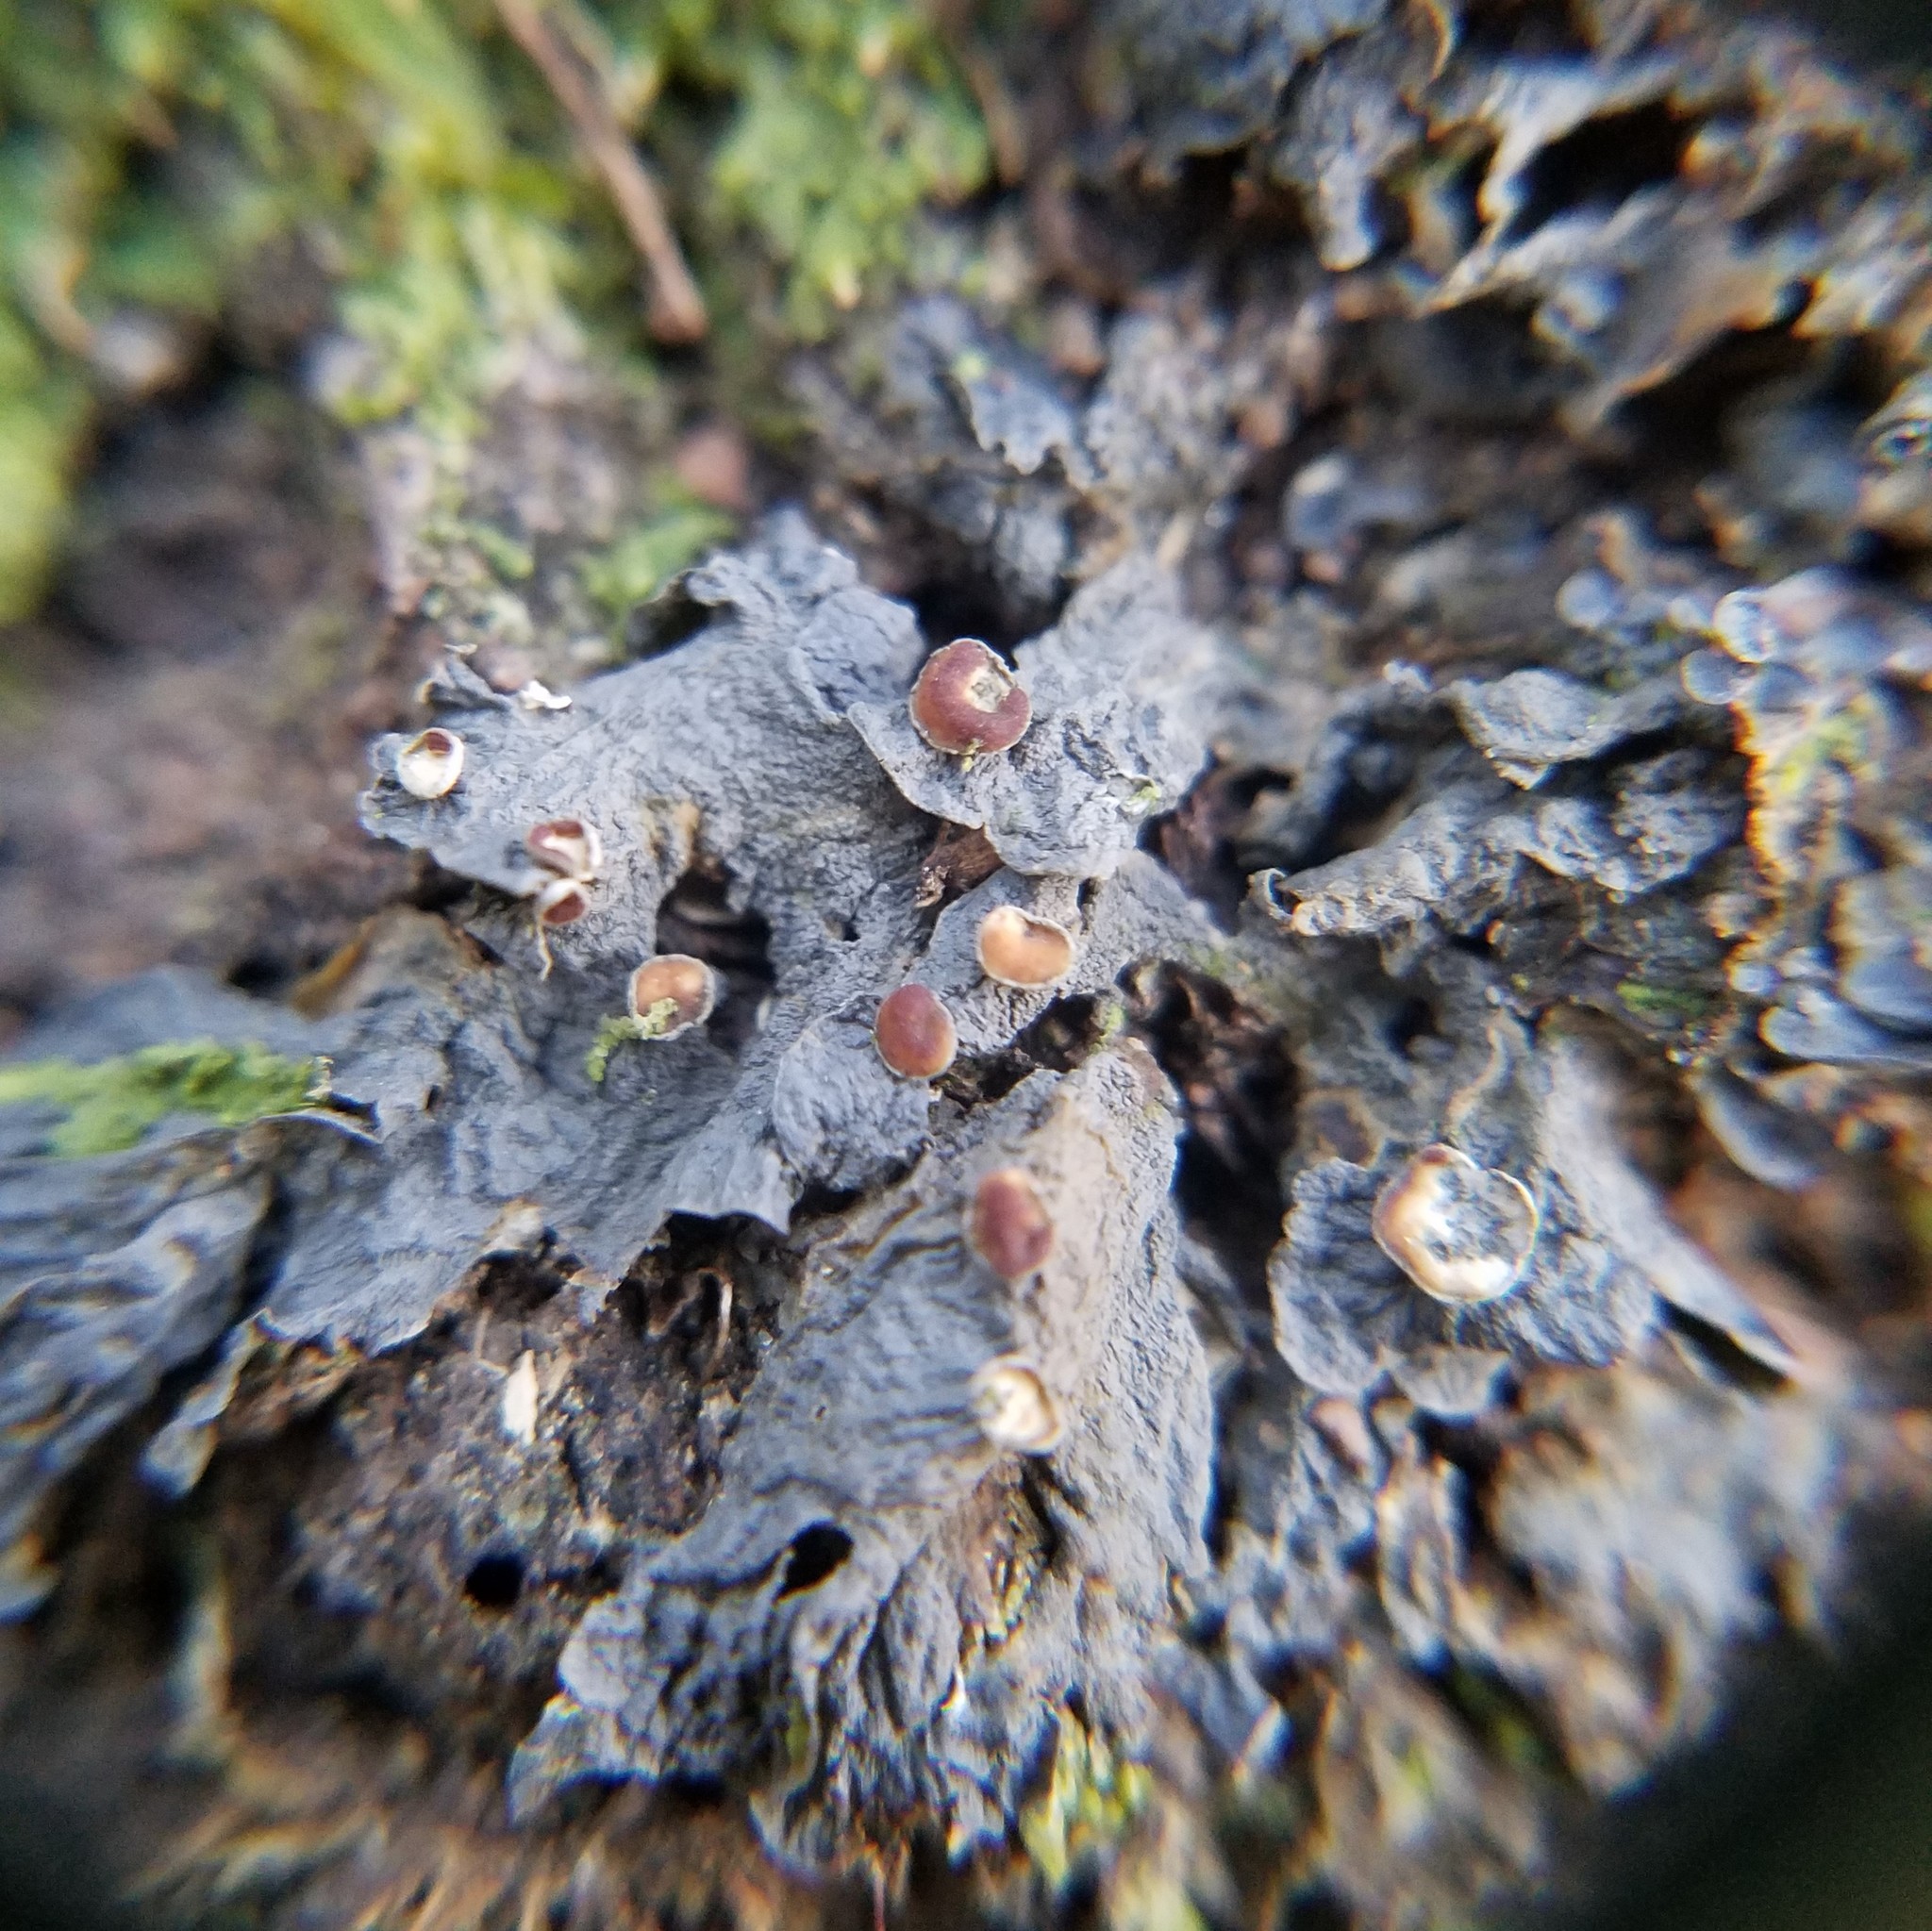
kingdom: Fungi
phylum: Ascomycota
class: Lecanoromycetes
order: Peltigerales
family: Collemataceae
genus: Leptogium
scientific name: Leptogium corticola
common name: Blistered jellyskin lichen
